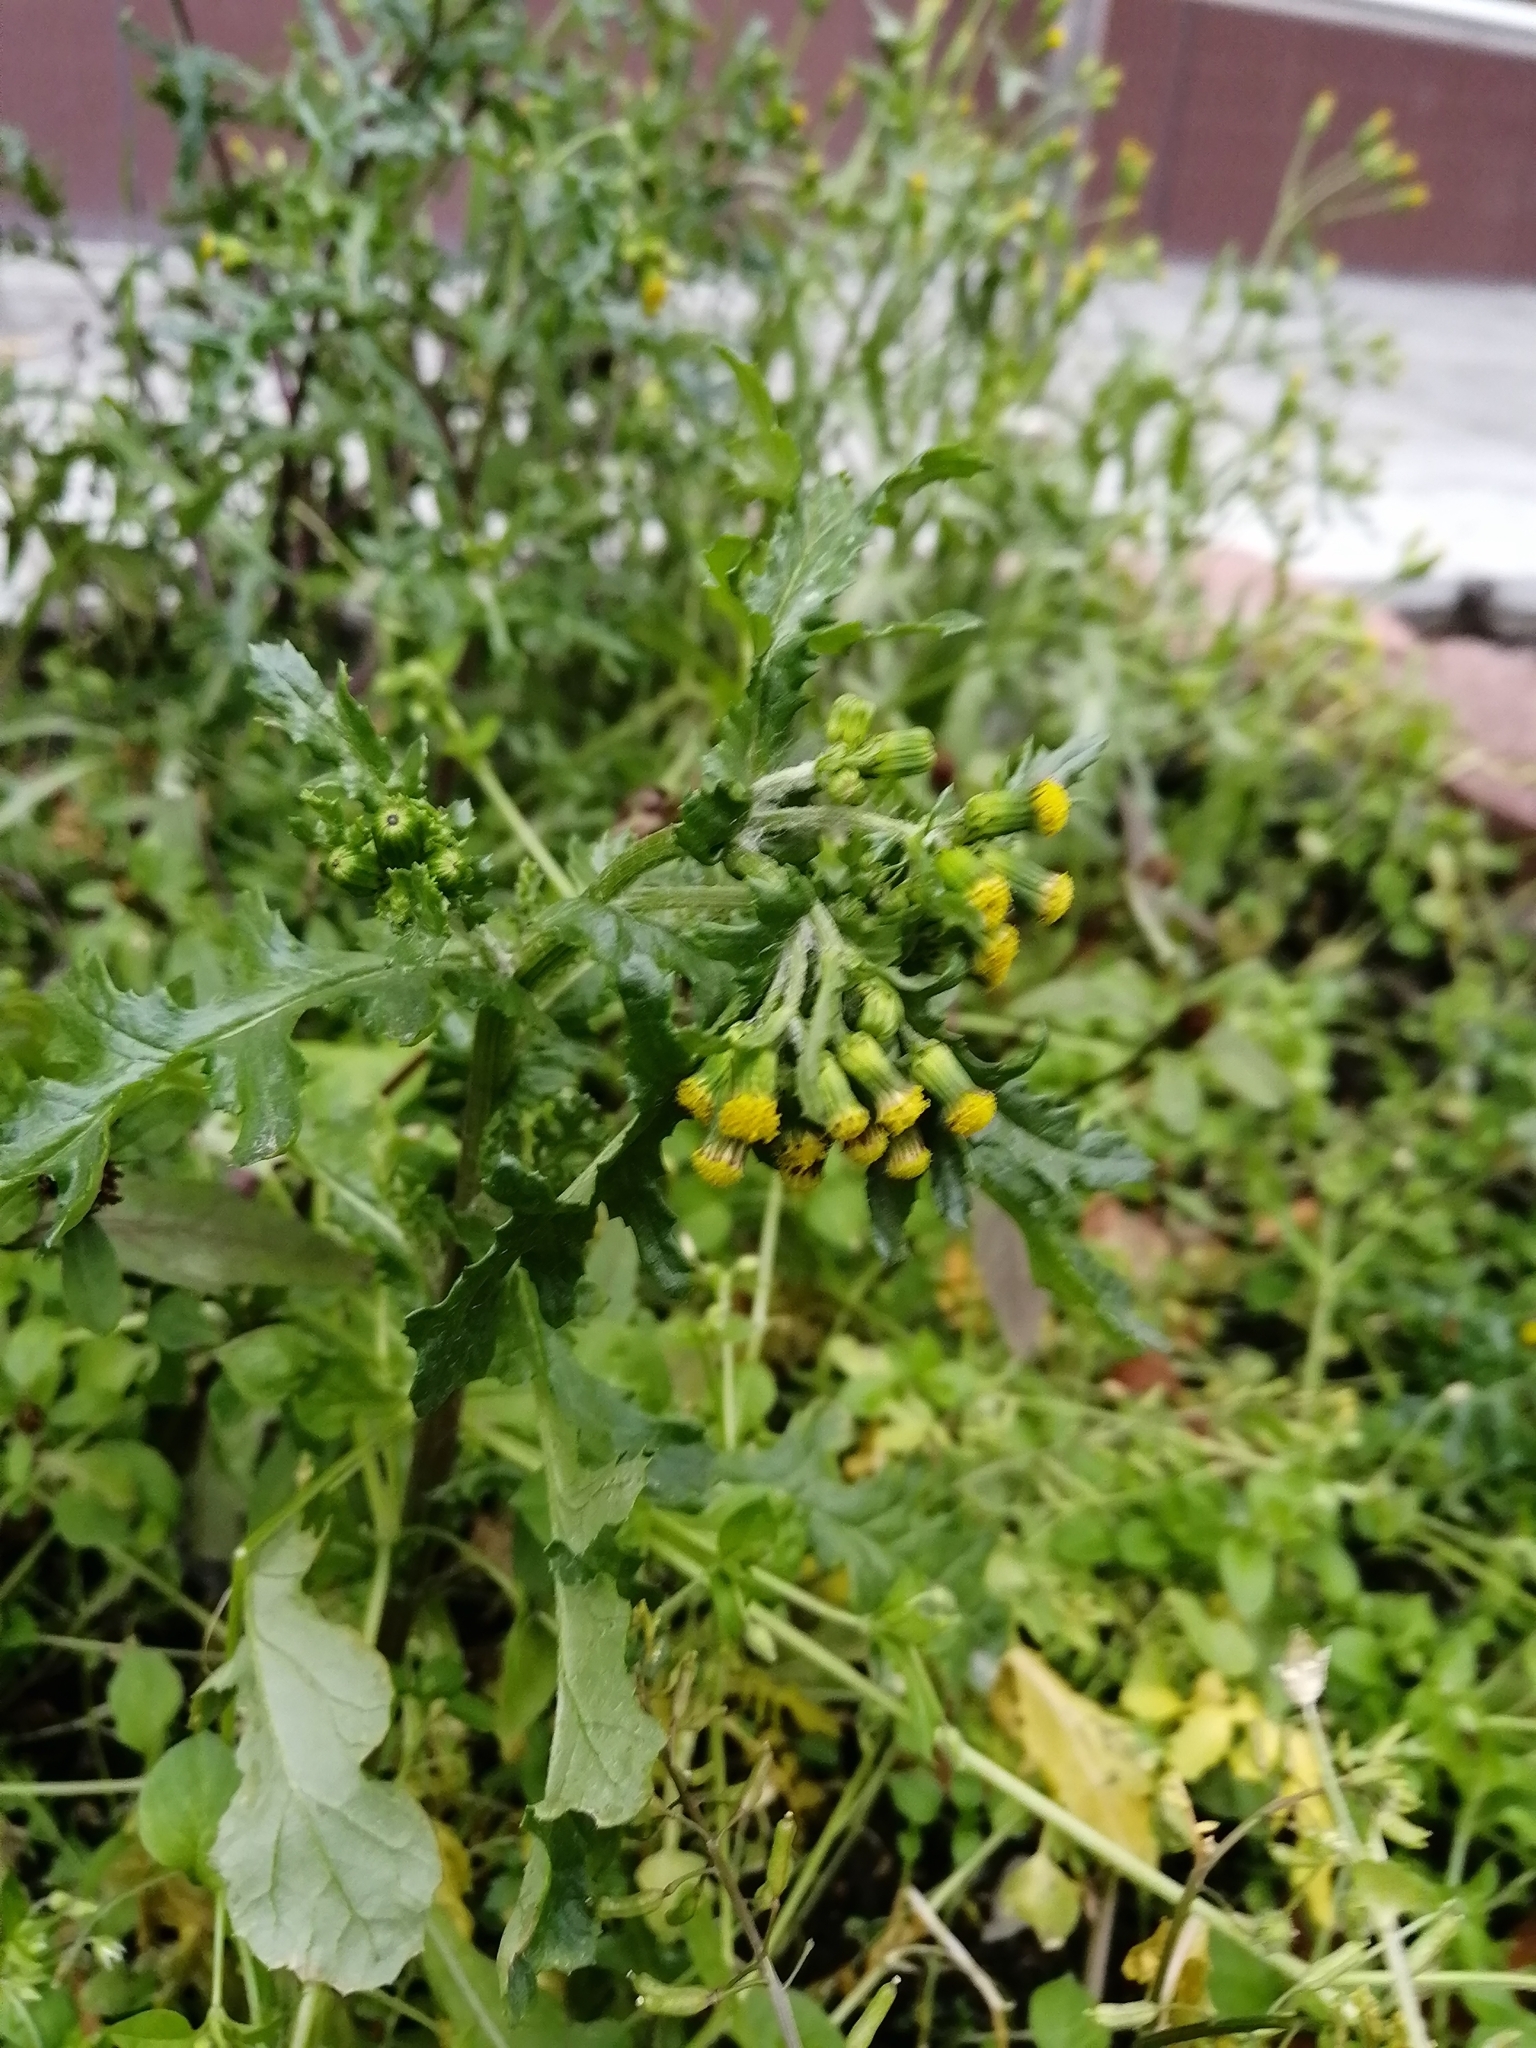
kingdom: Plantae
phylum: Tracheophyta
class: Magnoliopsida
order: Asterales
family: Asteraceae
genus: Senecio
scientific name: Senecio vulgaris
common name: Old-man-in-the-spring
